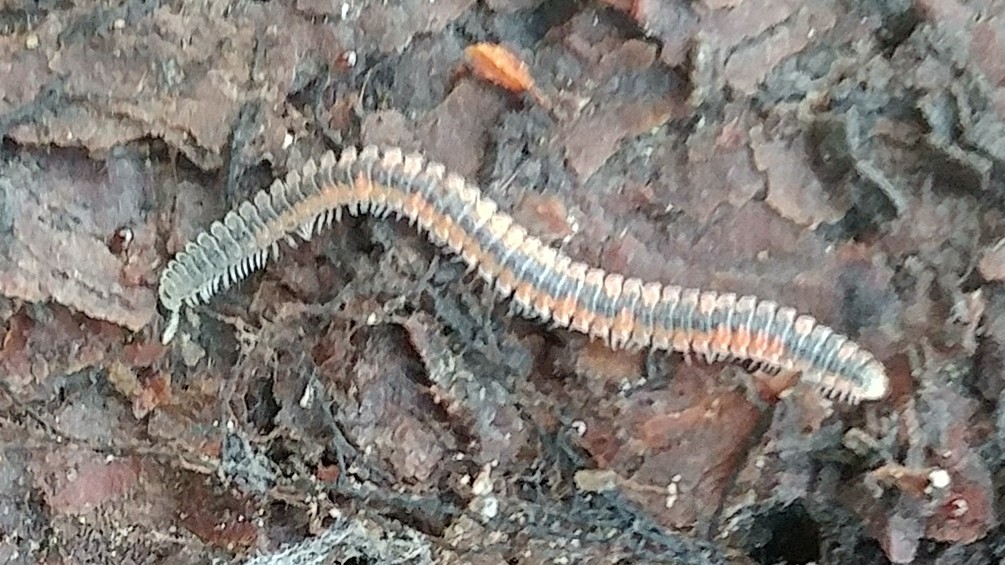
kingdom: Animalia
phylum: Arthropoda
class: Diplopoda
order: Platydesmida
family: Andrognathidae
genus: Gosodesmus
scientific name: Gosodesmus claremontus
